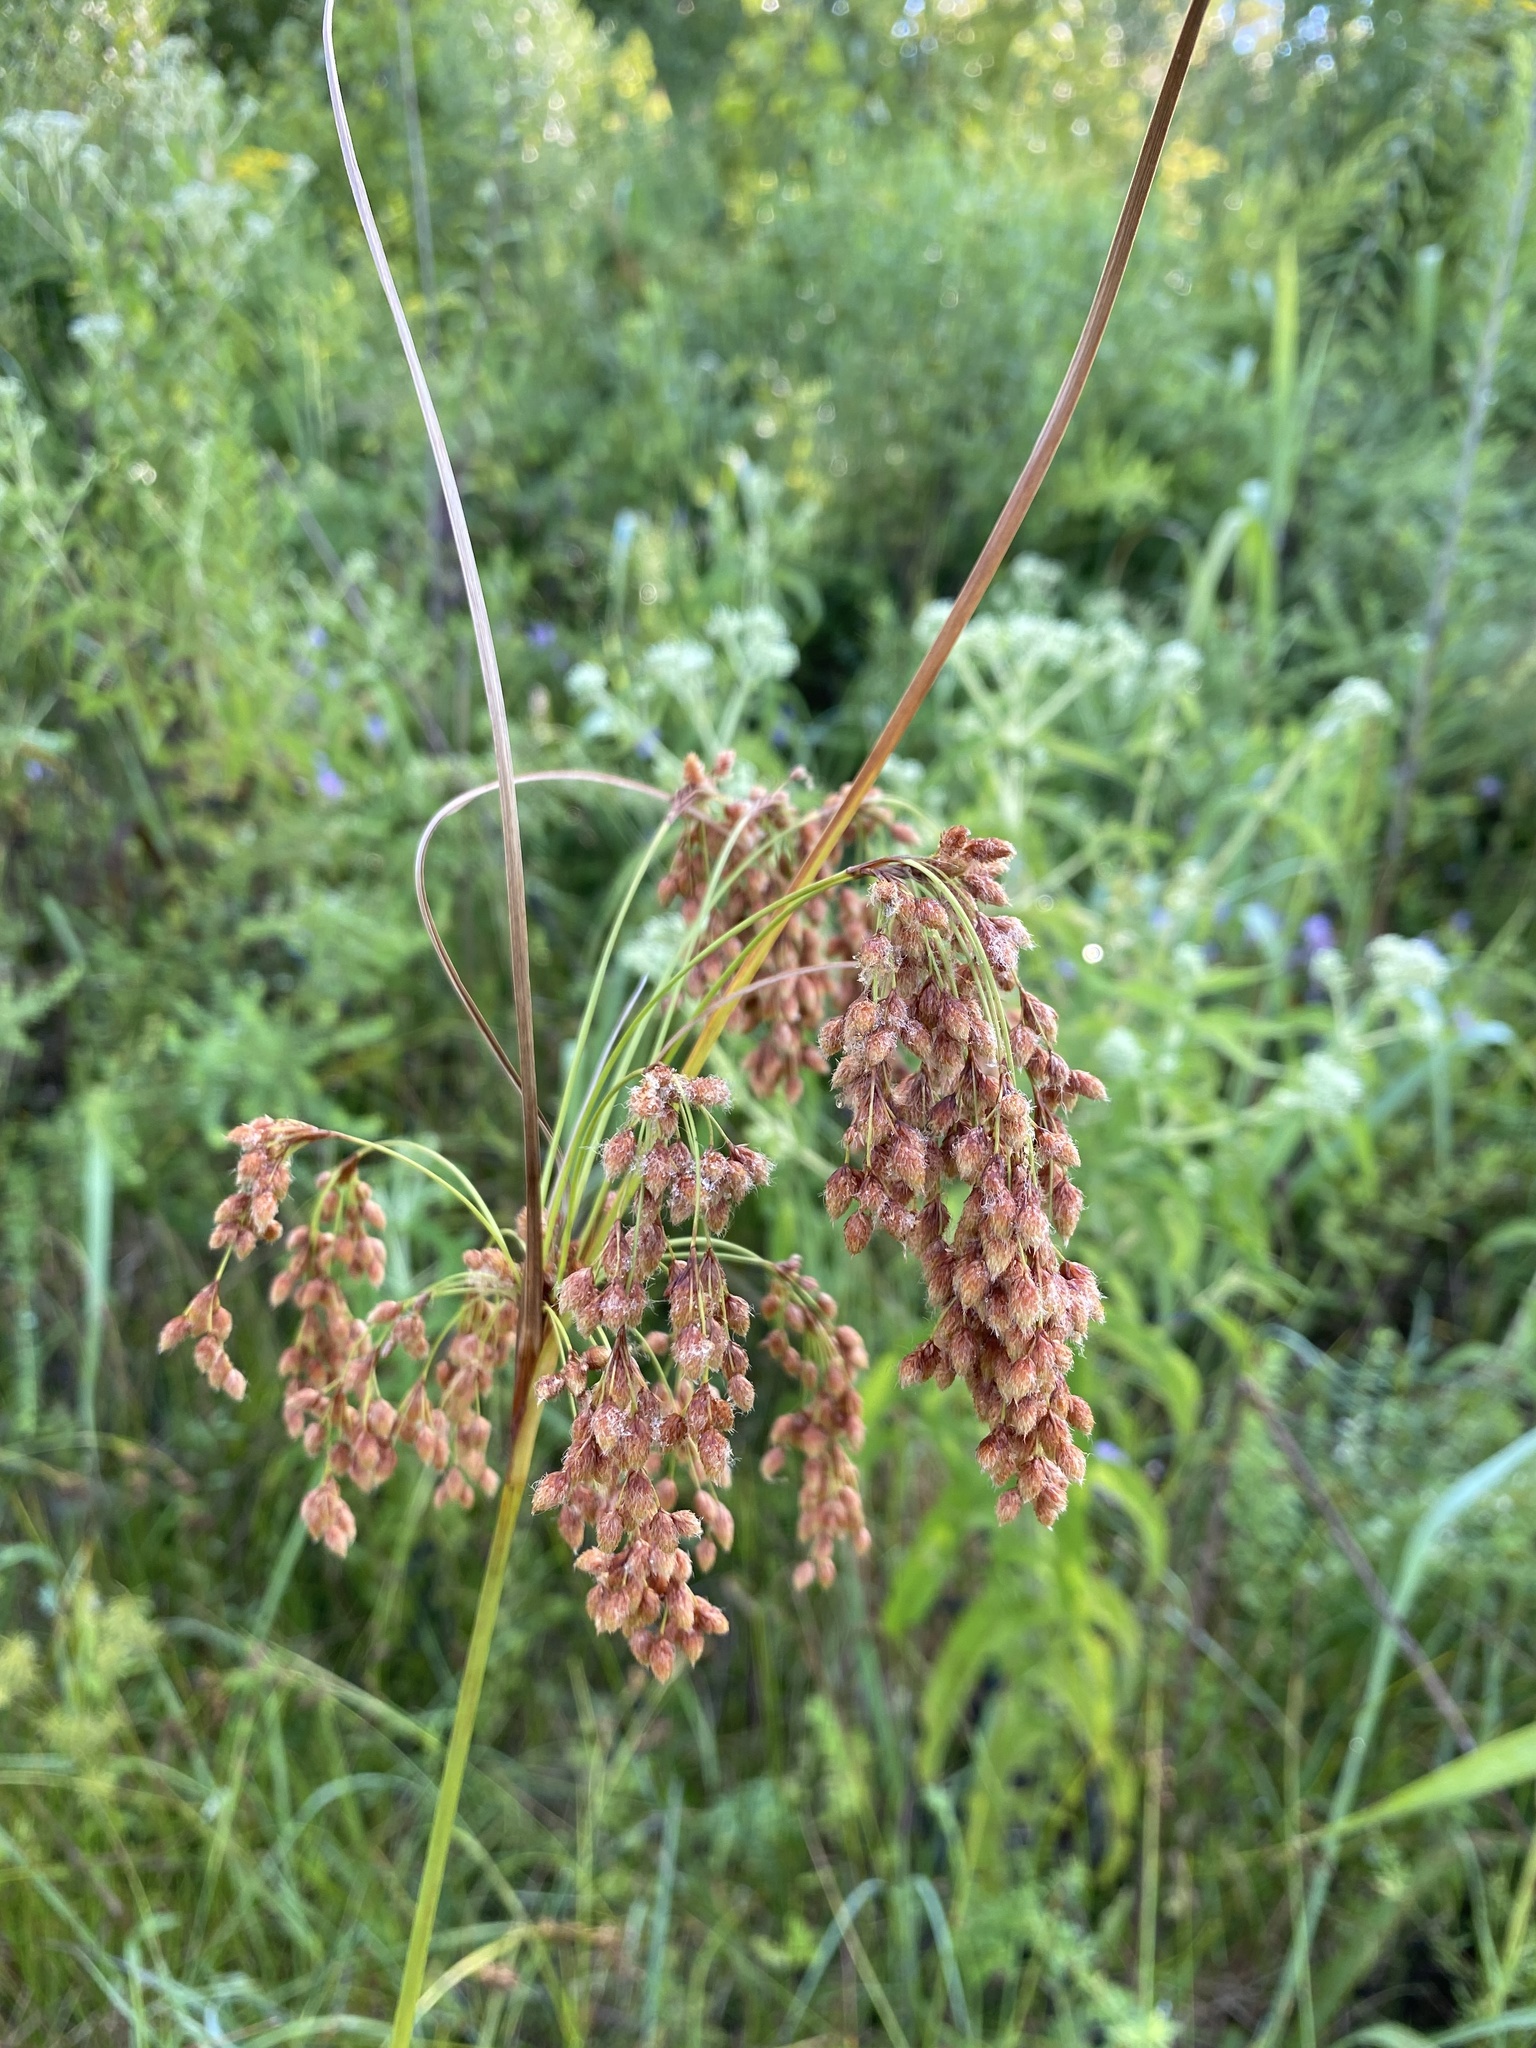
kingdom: Plantae
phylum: Tracheophyta
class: Liliopsida
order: Poales
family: Cyperaceae
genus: Scirpus
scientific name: Scirpus cyperinus
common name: Black-sheathed bulrush
